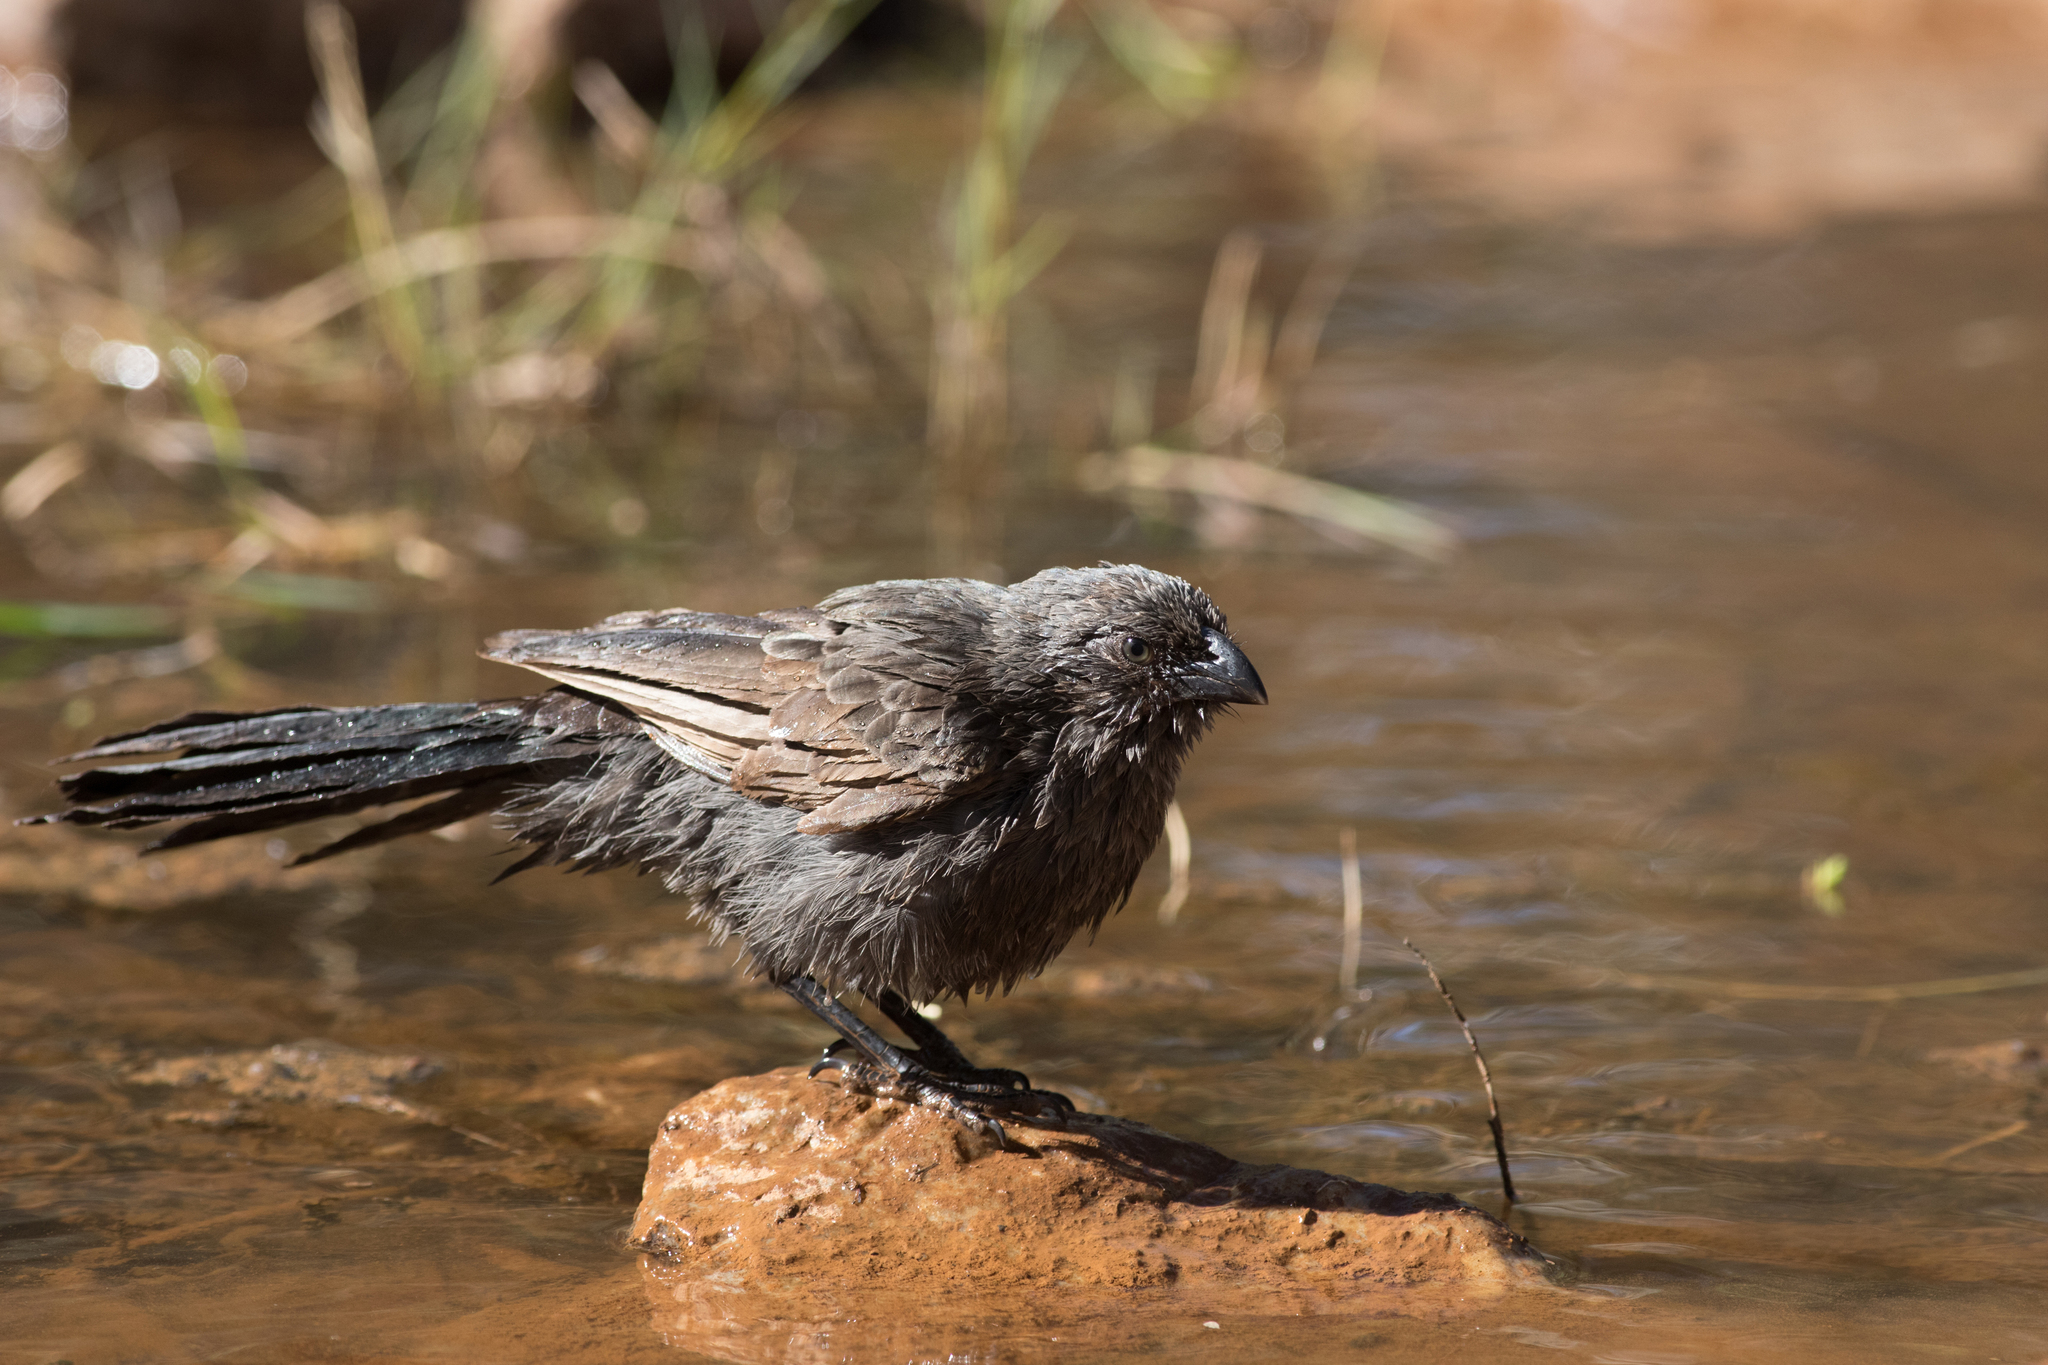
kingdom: Animalia
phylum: Chordata
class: Aves
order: Passeriformes
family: Corcoracidae
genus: Struthidea
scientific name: Struthidea cinerea
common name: Apostlebird
